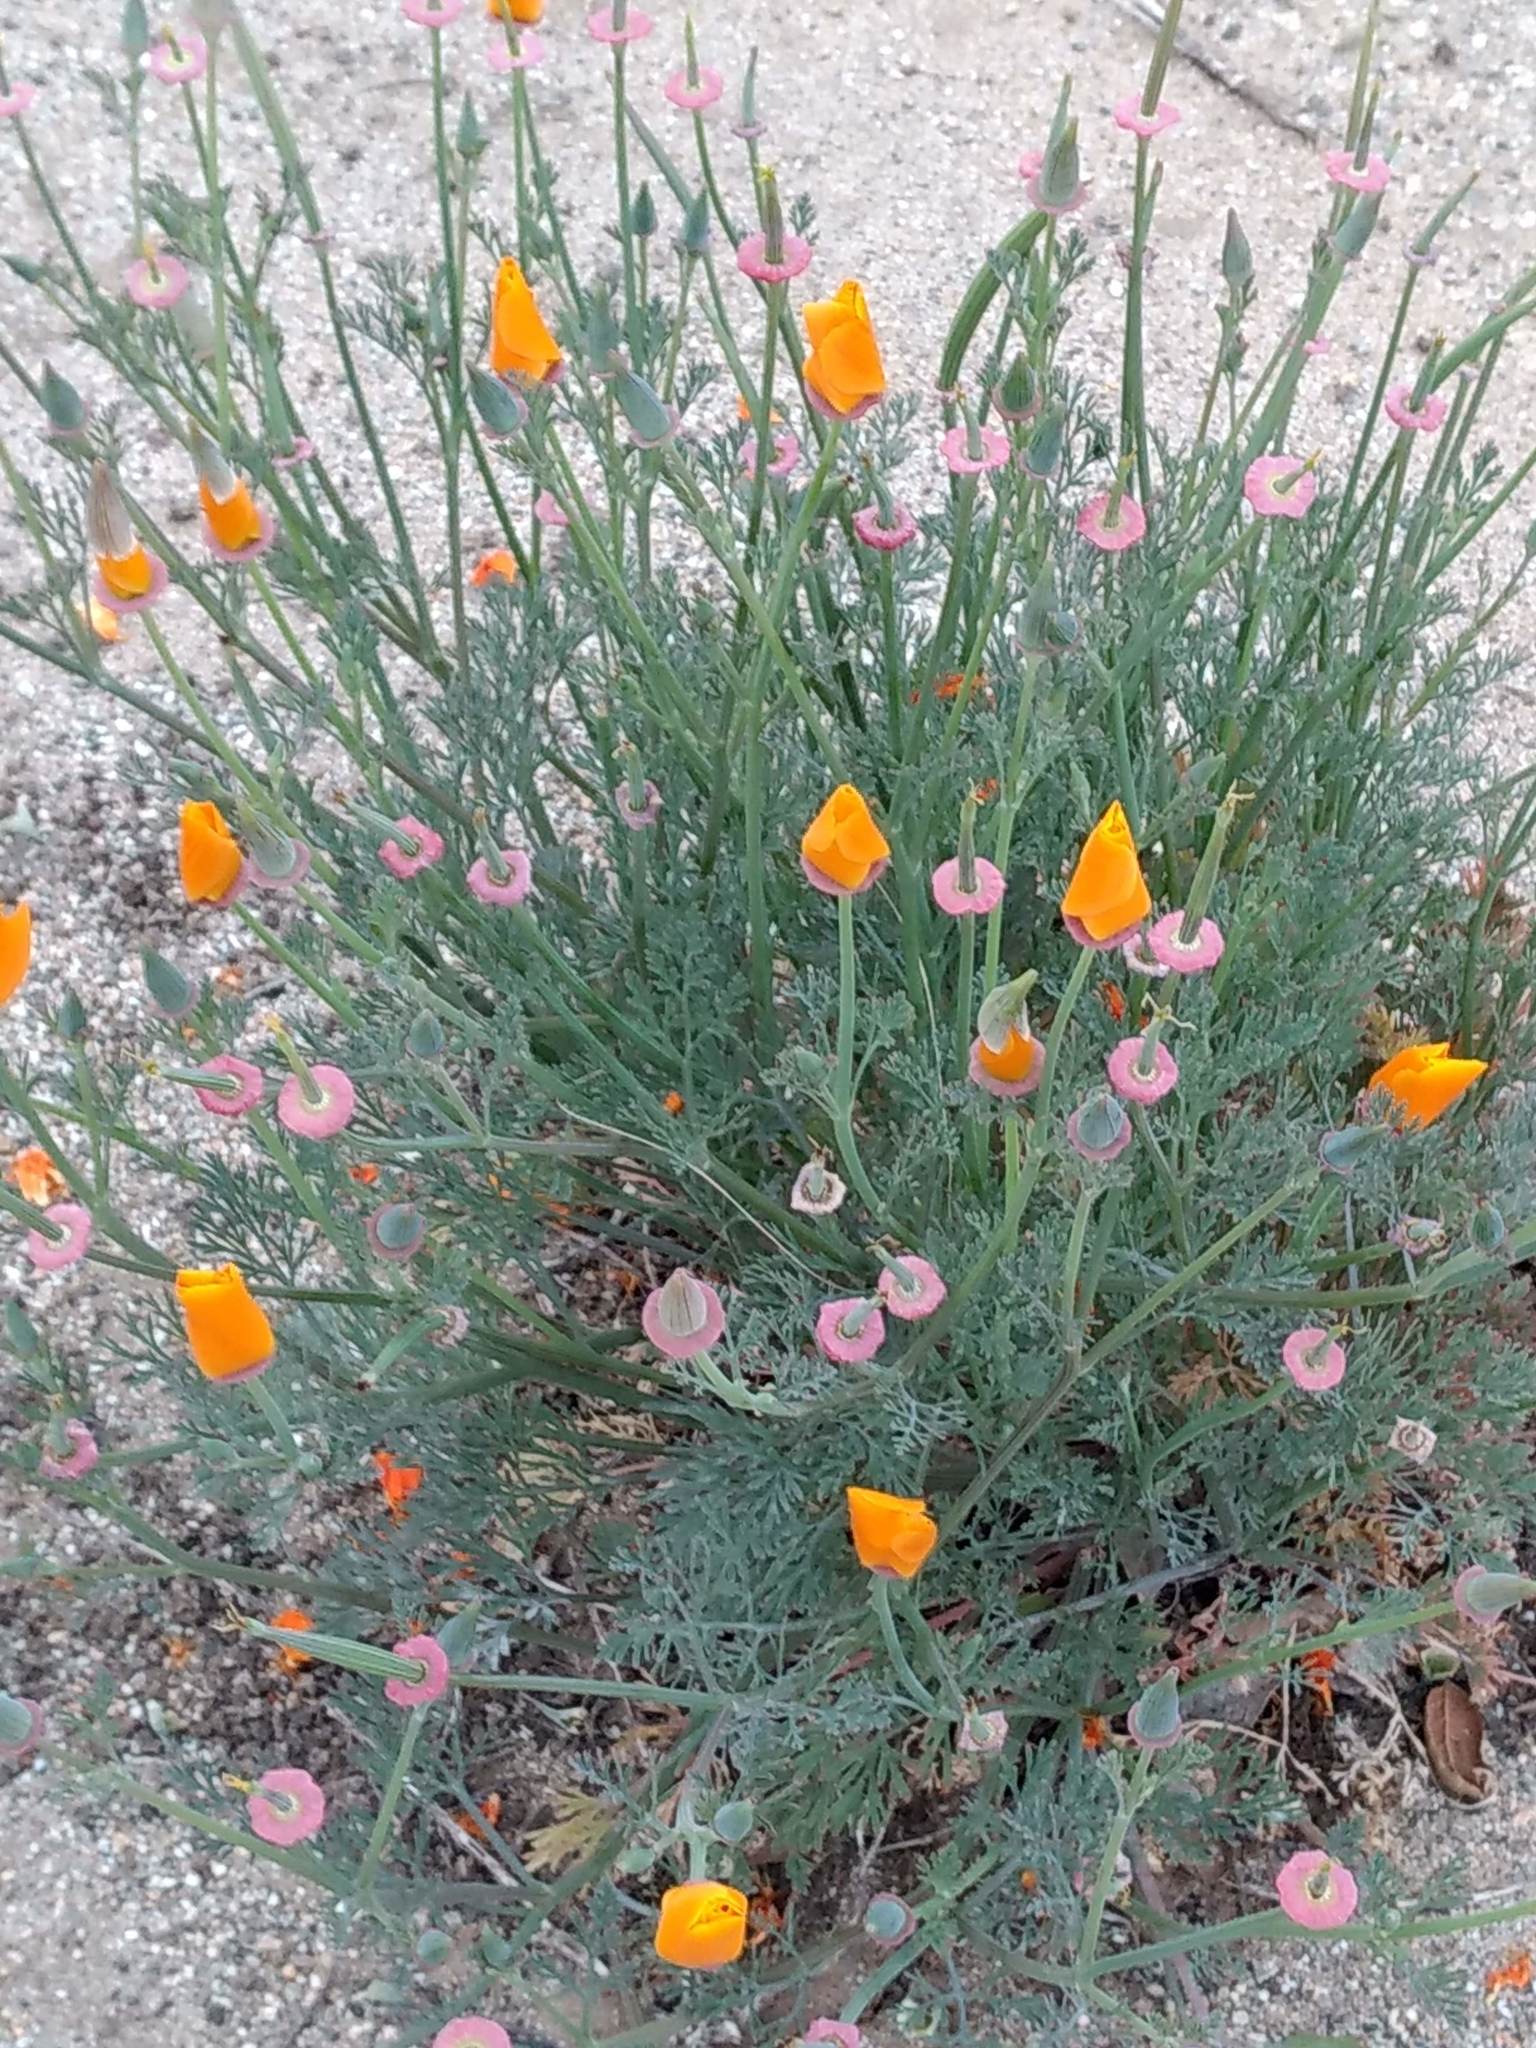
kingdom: Plantae
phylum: Tracheophyta
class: Magnoliopsida
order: Ranunculales
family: Papaveraceae
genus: Eschscholzia
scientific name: Eschscholzia californica
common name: California poppy
